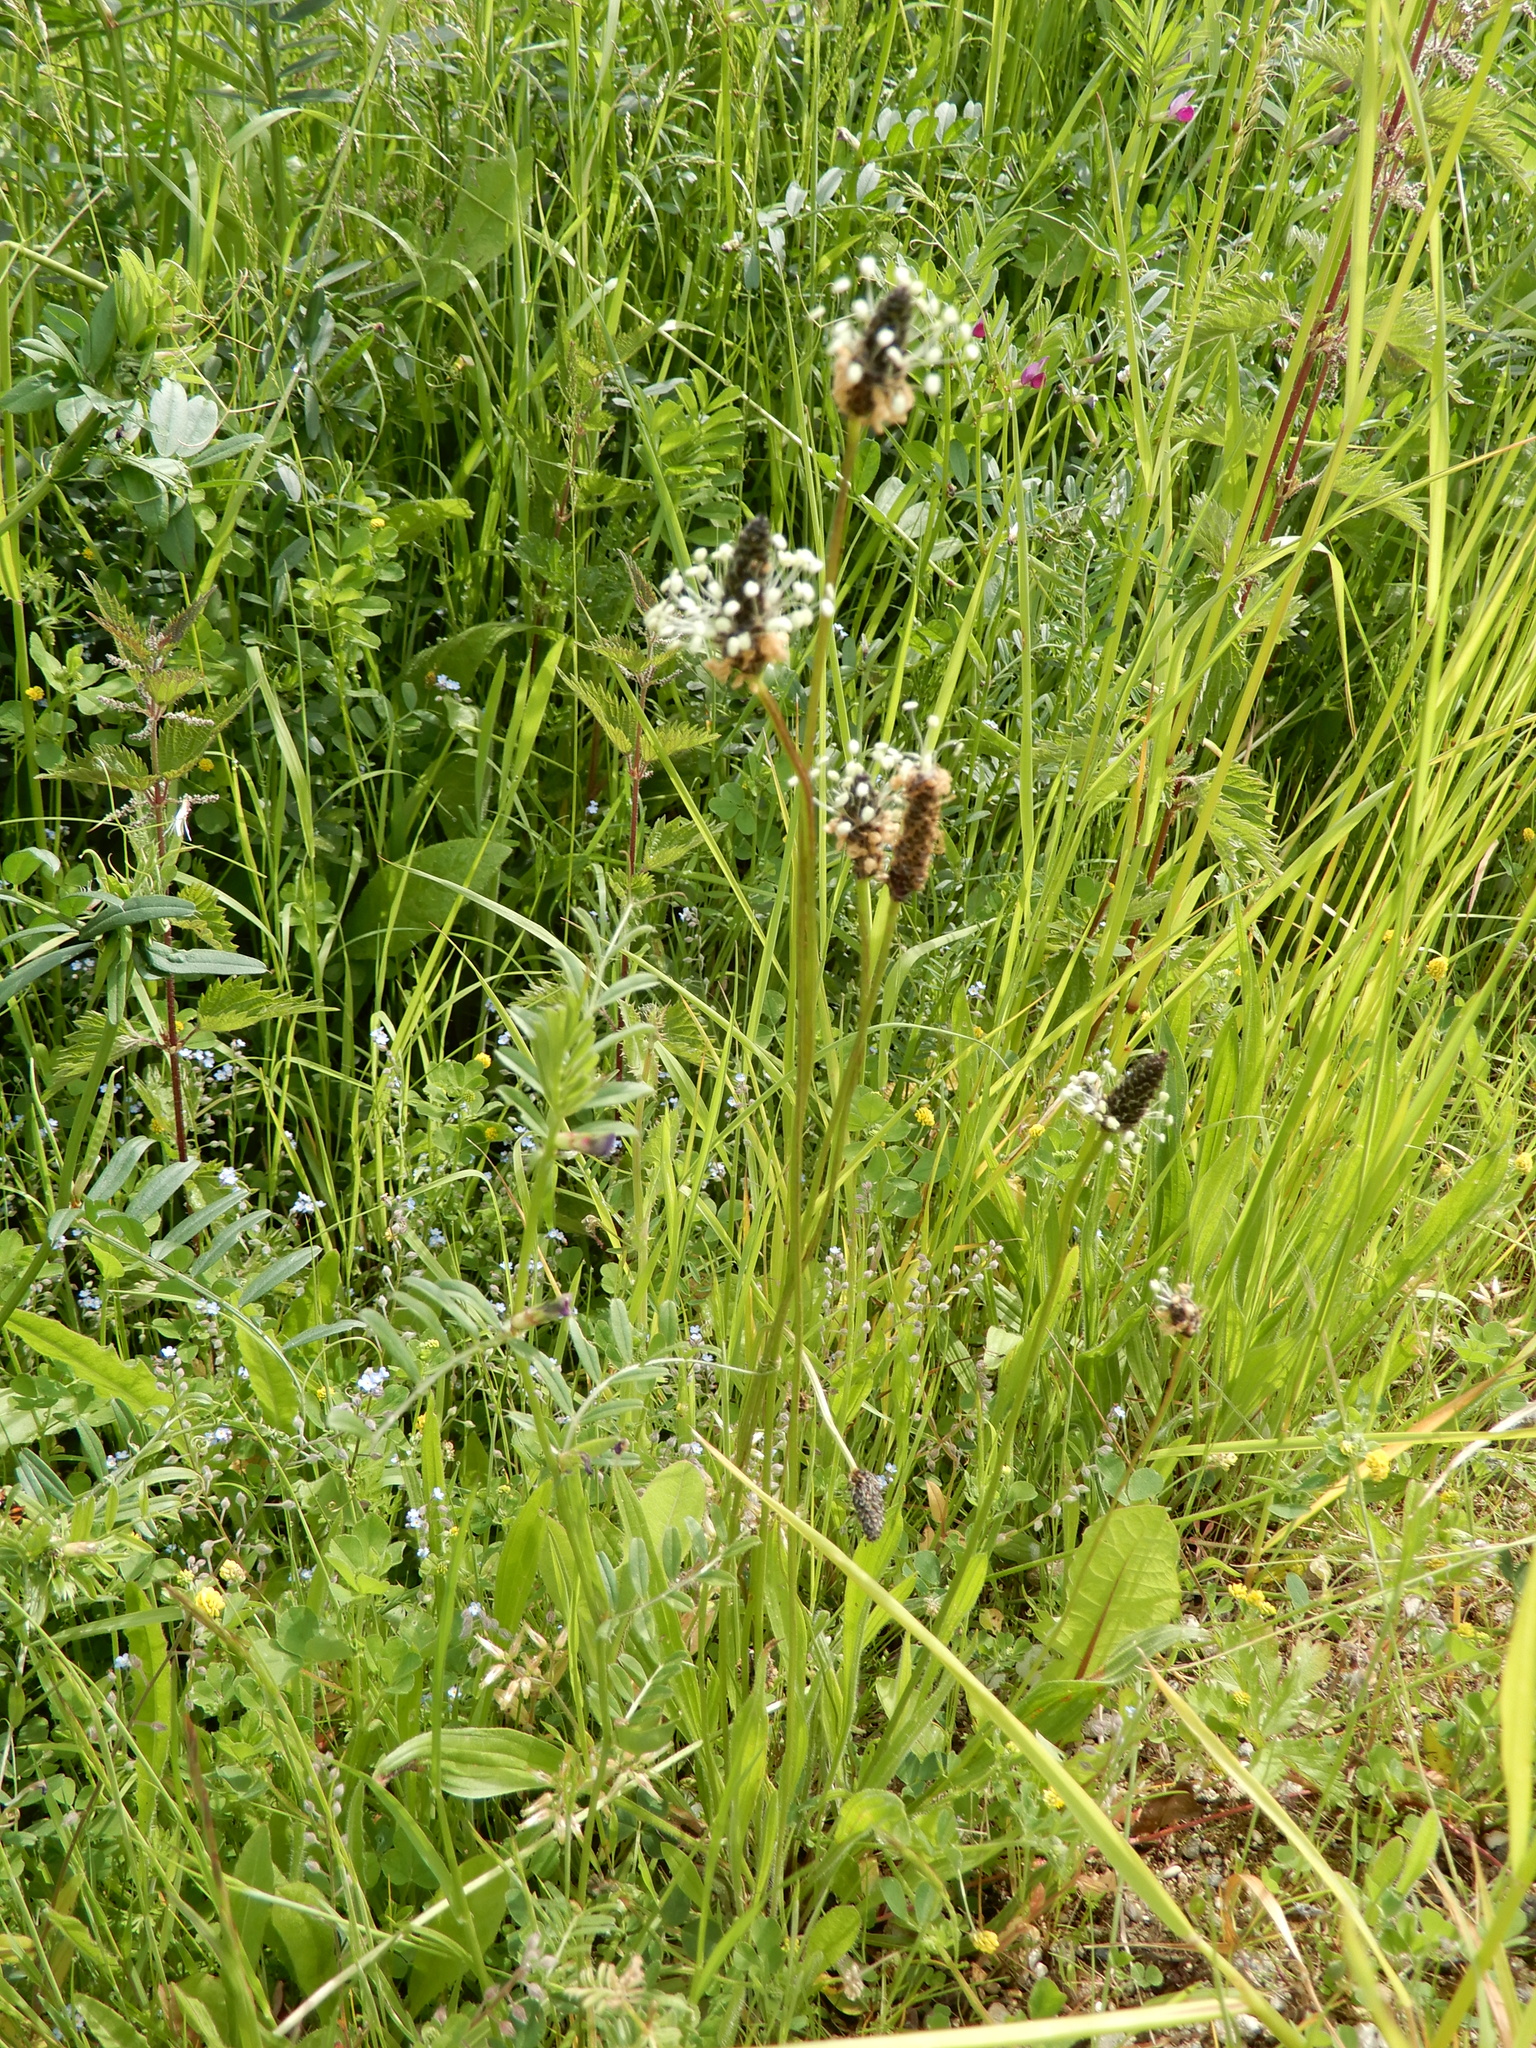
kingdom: Plantae
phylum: Tracheophyta
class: Magnoliopsida
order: Lamiales
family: Plantaginaceae
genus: Plantago
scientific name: Plantago lanceolata
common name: Ribwort plantain
